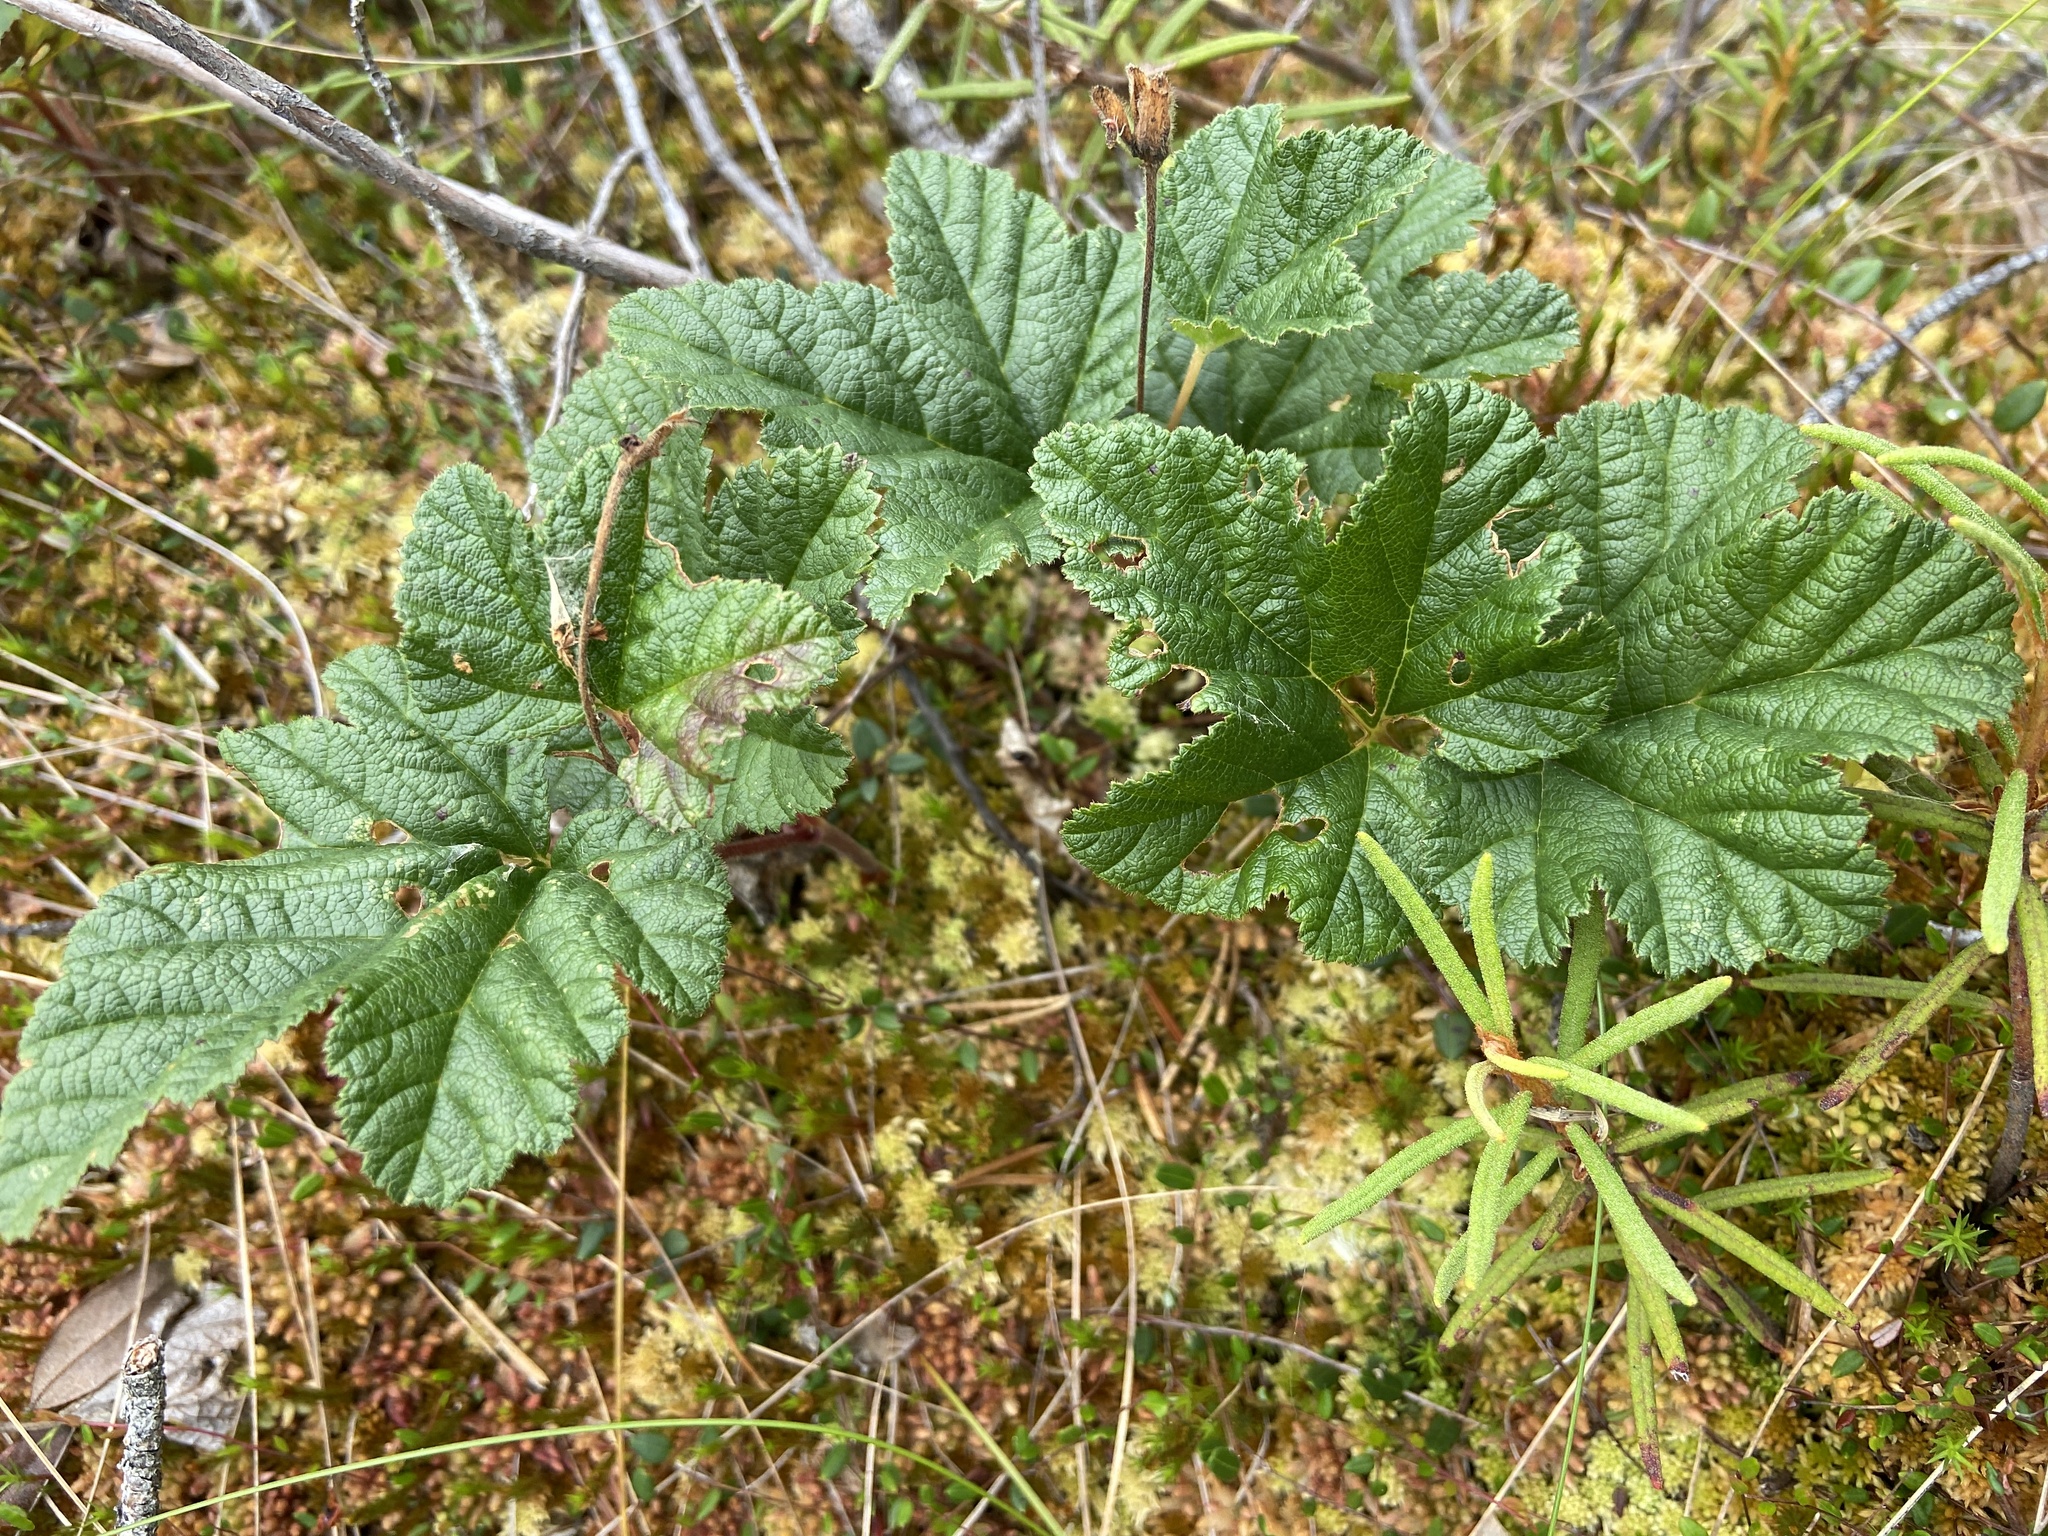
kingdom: Plantae
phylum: Tracheophyta
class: Magnoliopsida
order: Rosales
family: Rosaceae
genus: Rubus
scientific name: Rubus chamaemorus
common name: Cloudberry
